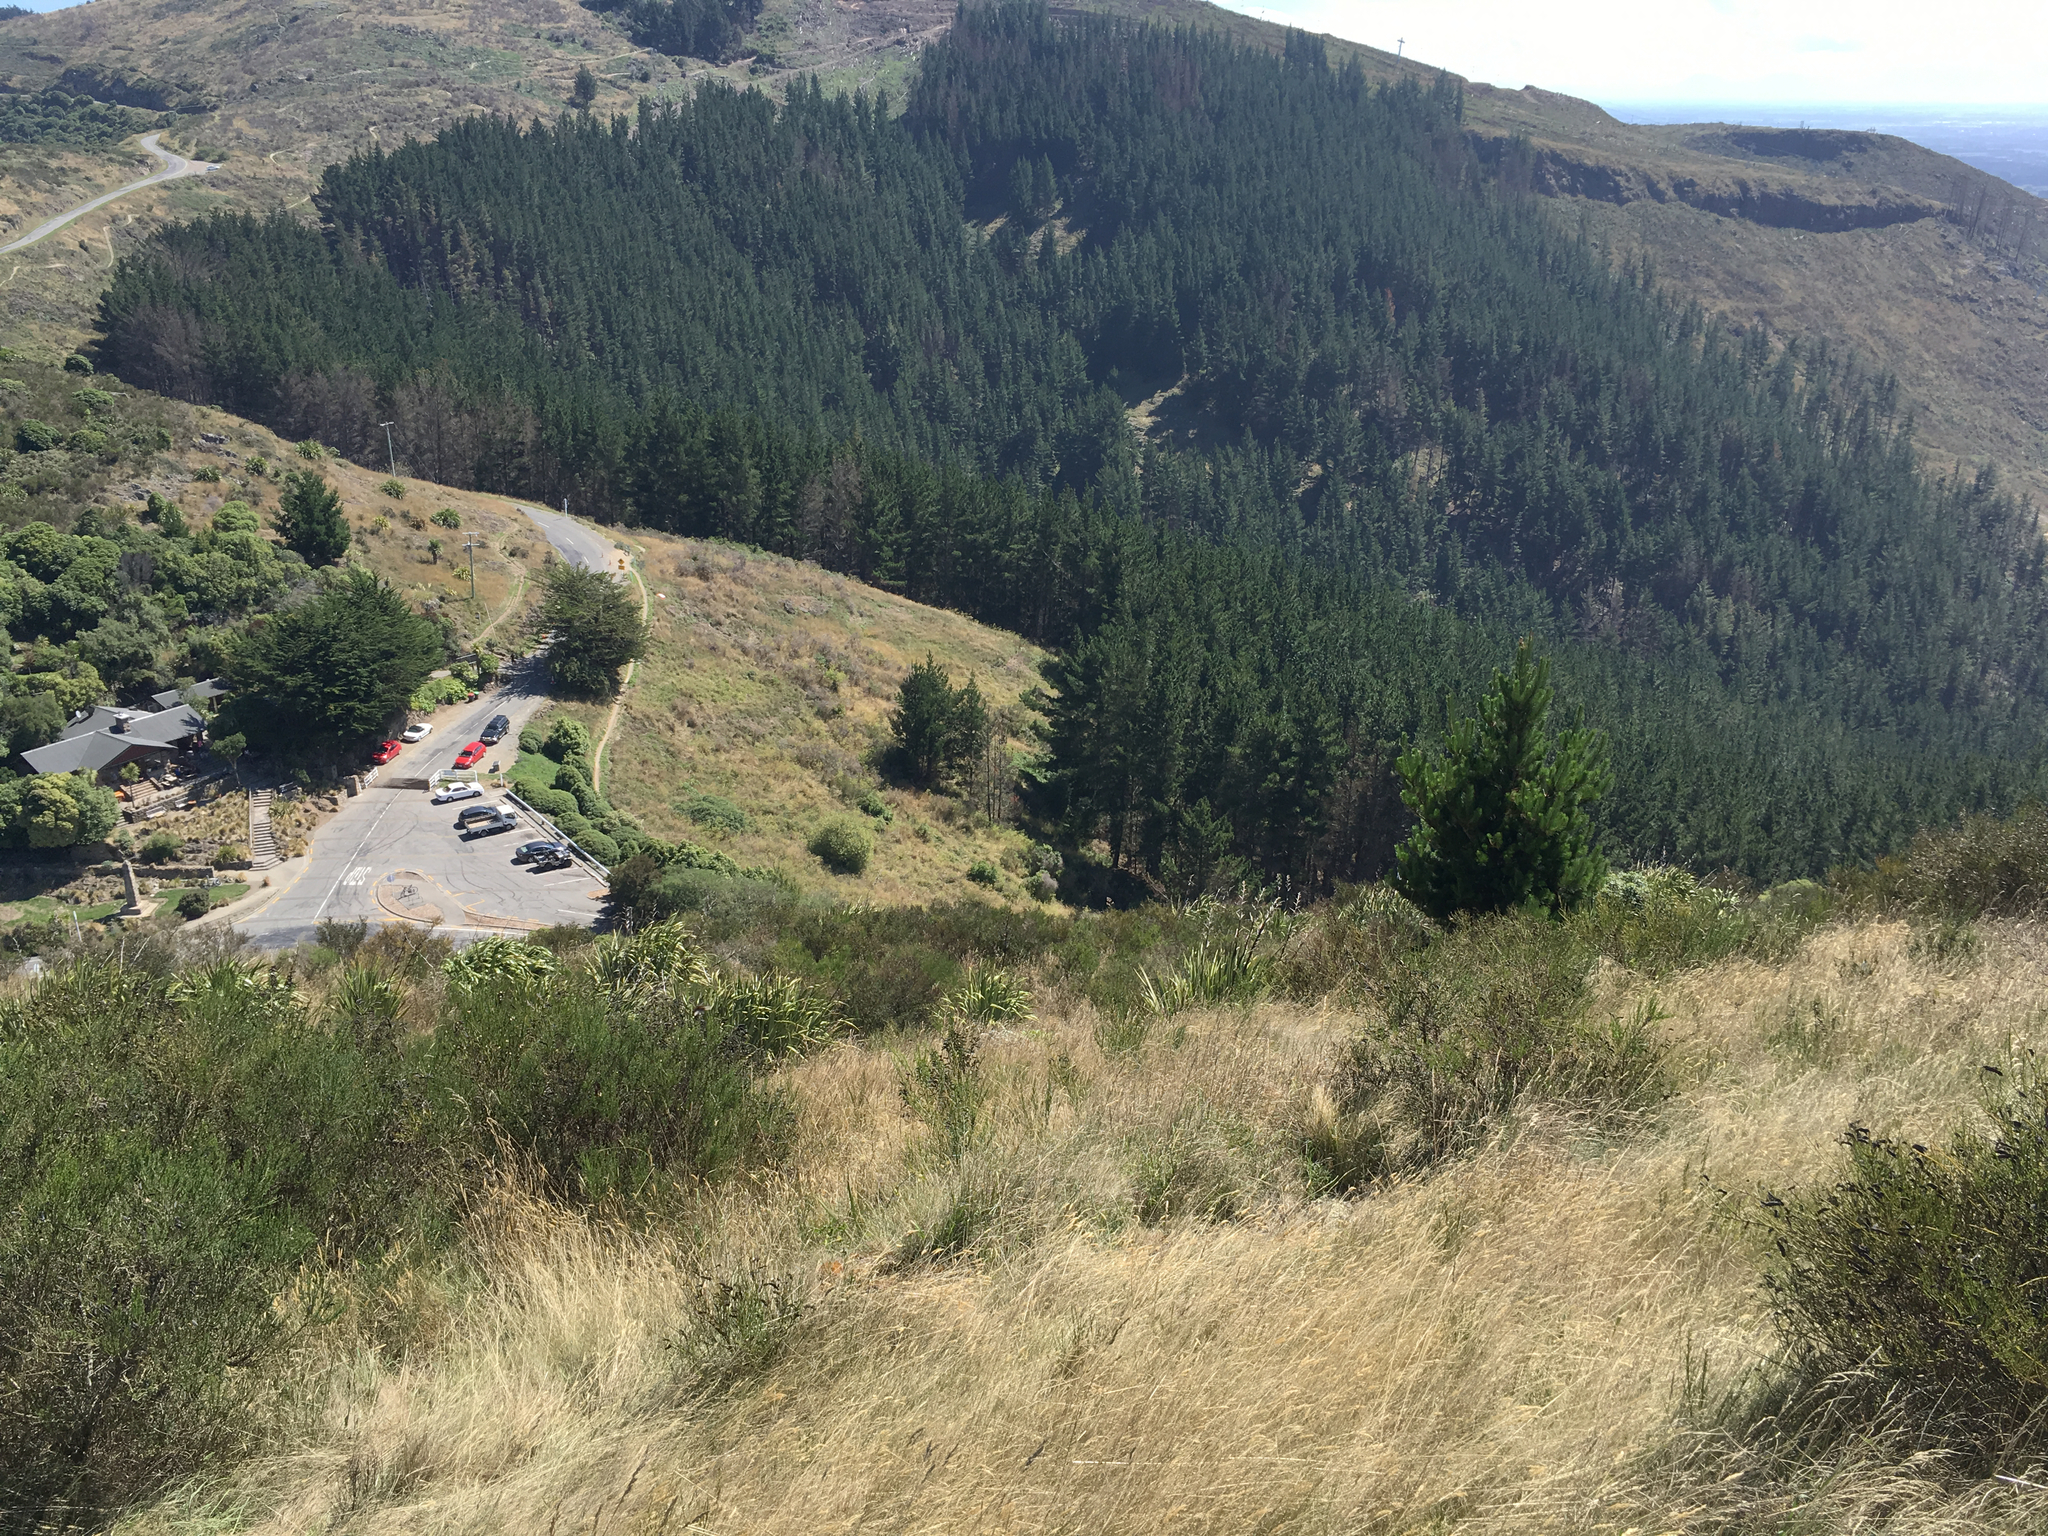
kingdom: Plantae
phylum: Tracheophyta
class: Pinopsida
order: Pinales
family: Pinaceae
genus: Pinus
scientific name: Pinus radiata
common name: Monterey pine
